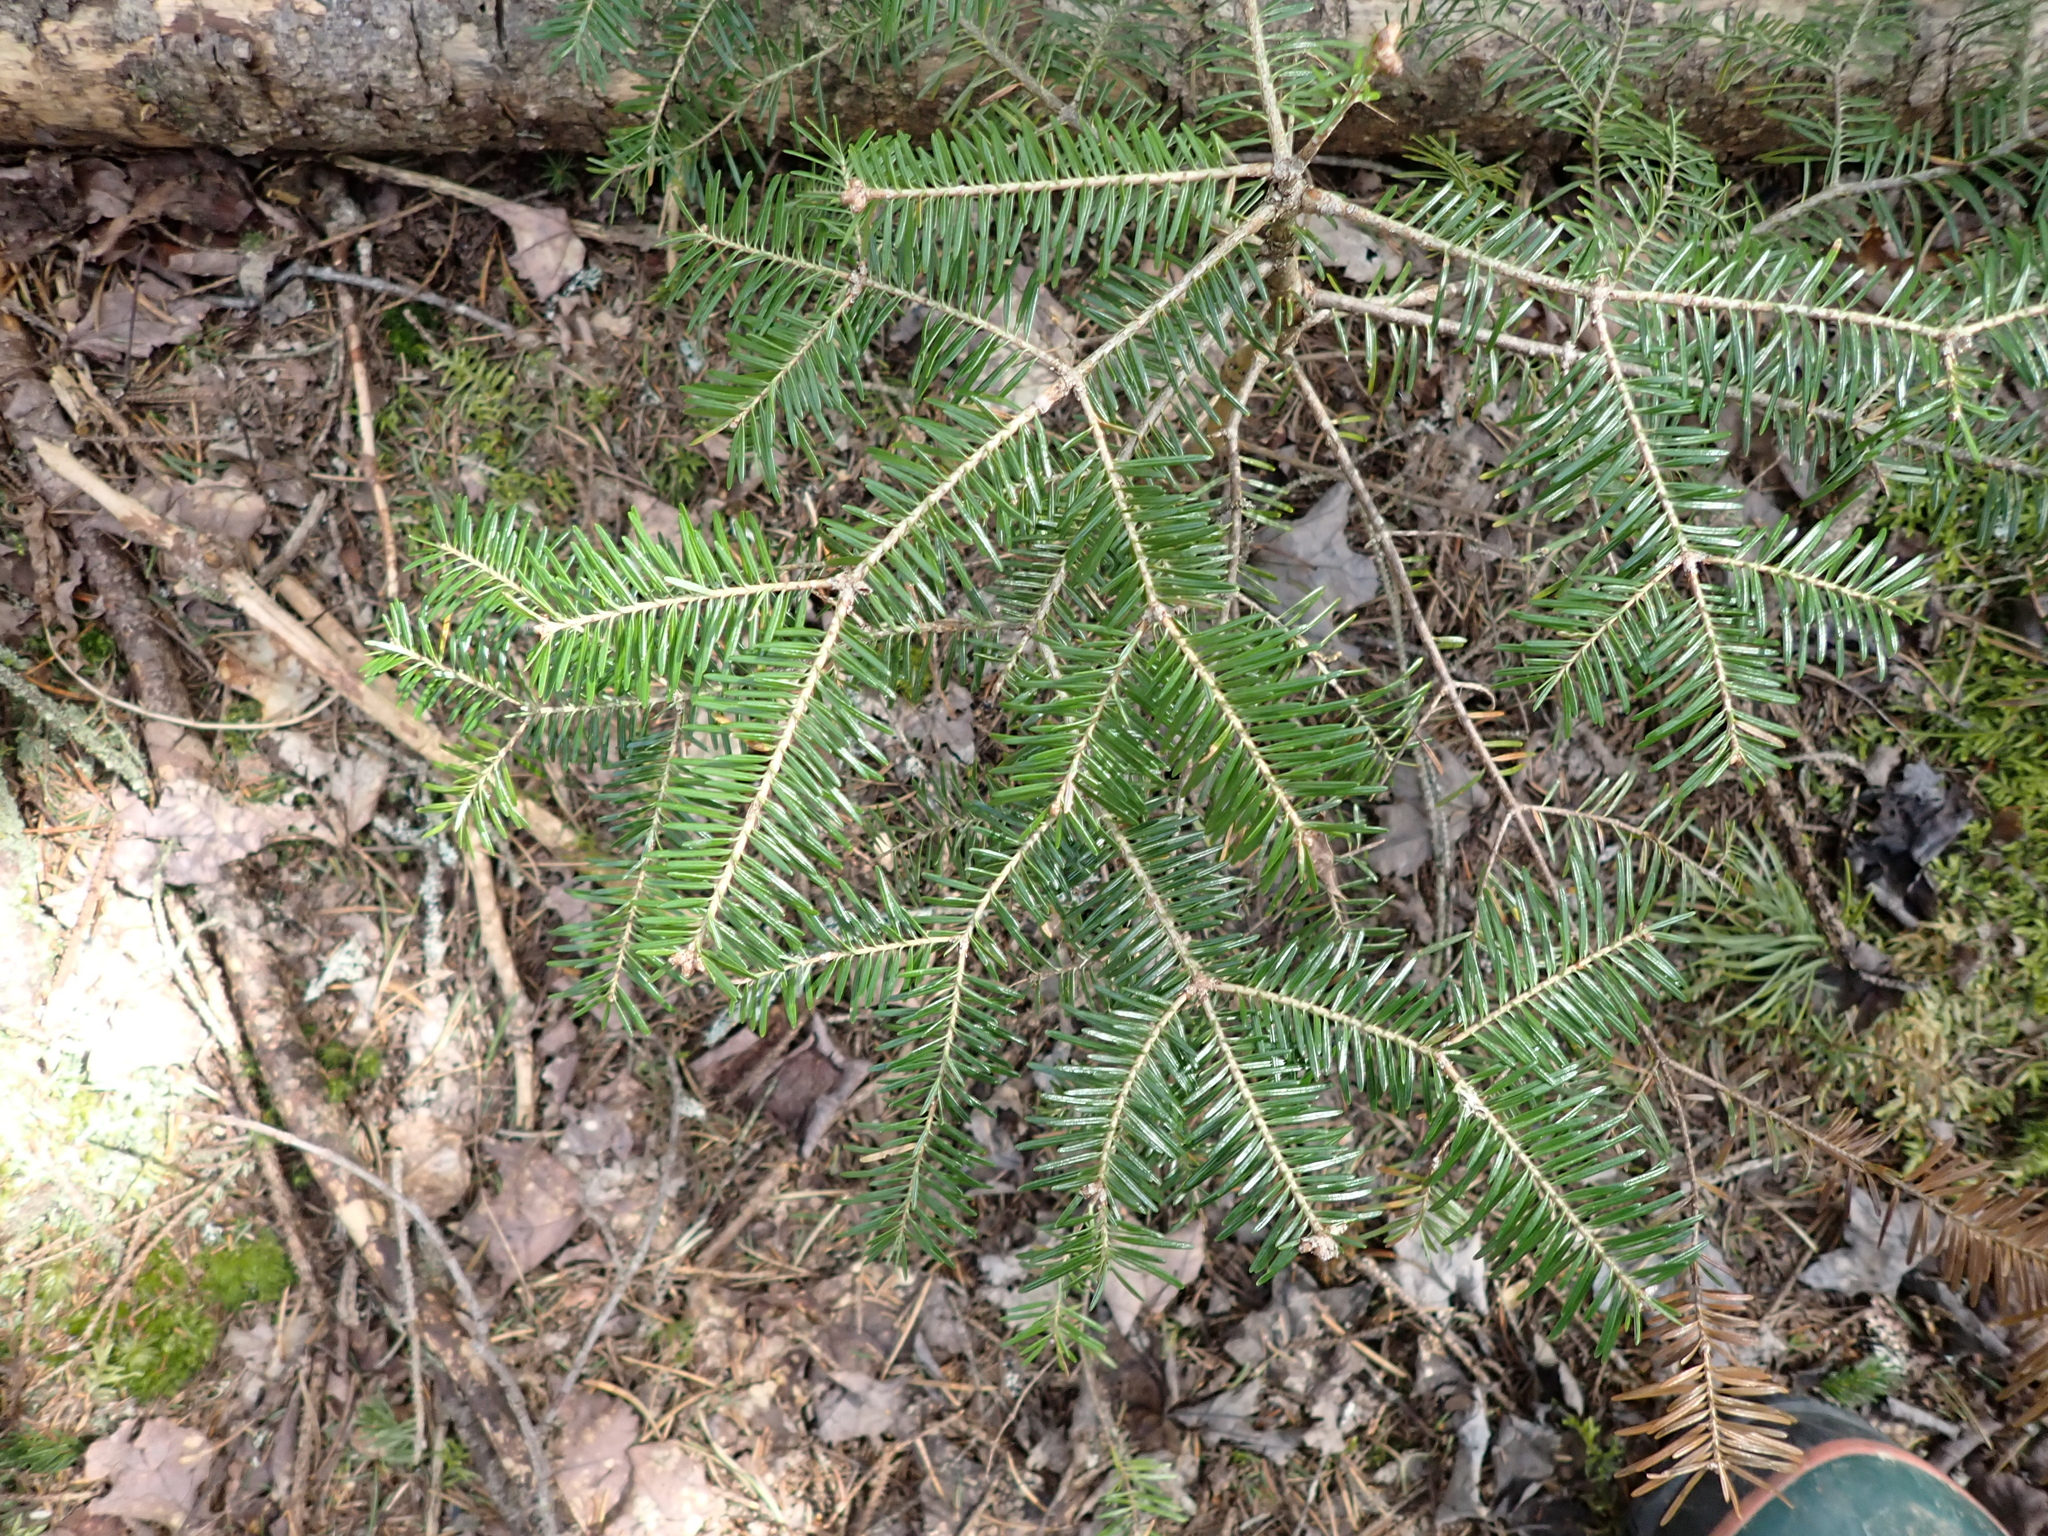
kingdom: Plantae
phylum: Tracheophyta
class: Pinopsida
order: Pinales
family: Pinaceae
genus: Abies
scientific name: Abies balsamea
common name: Balsam fir
